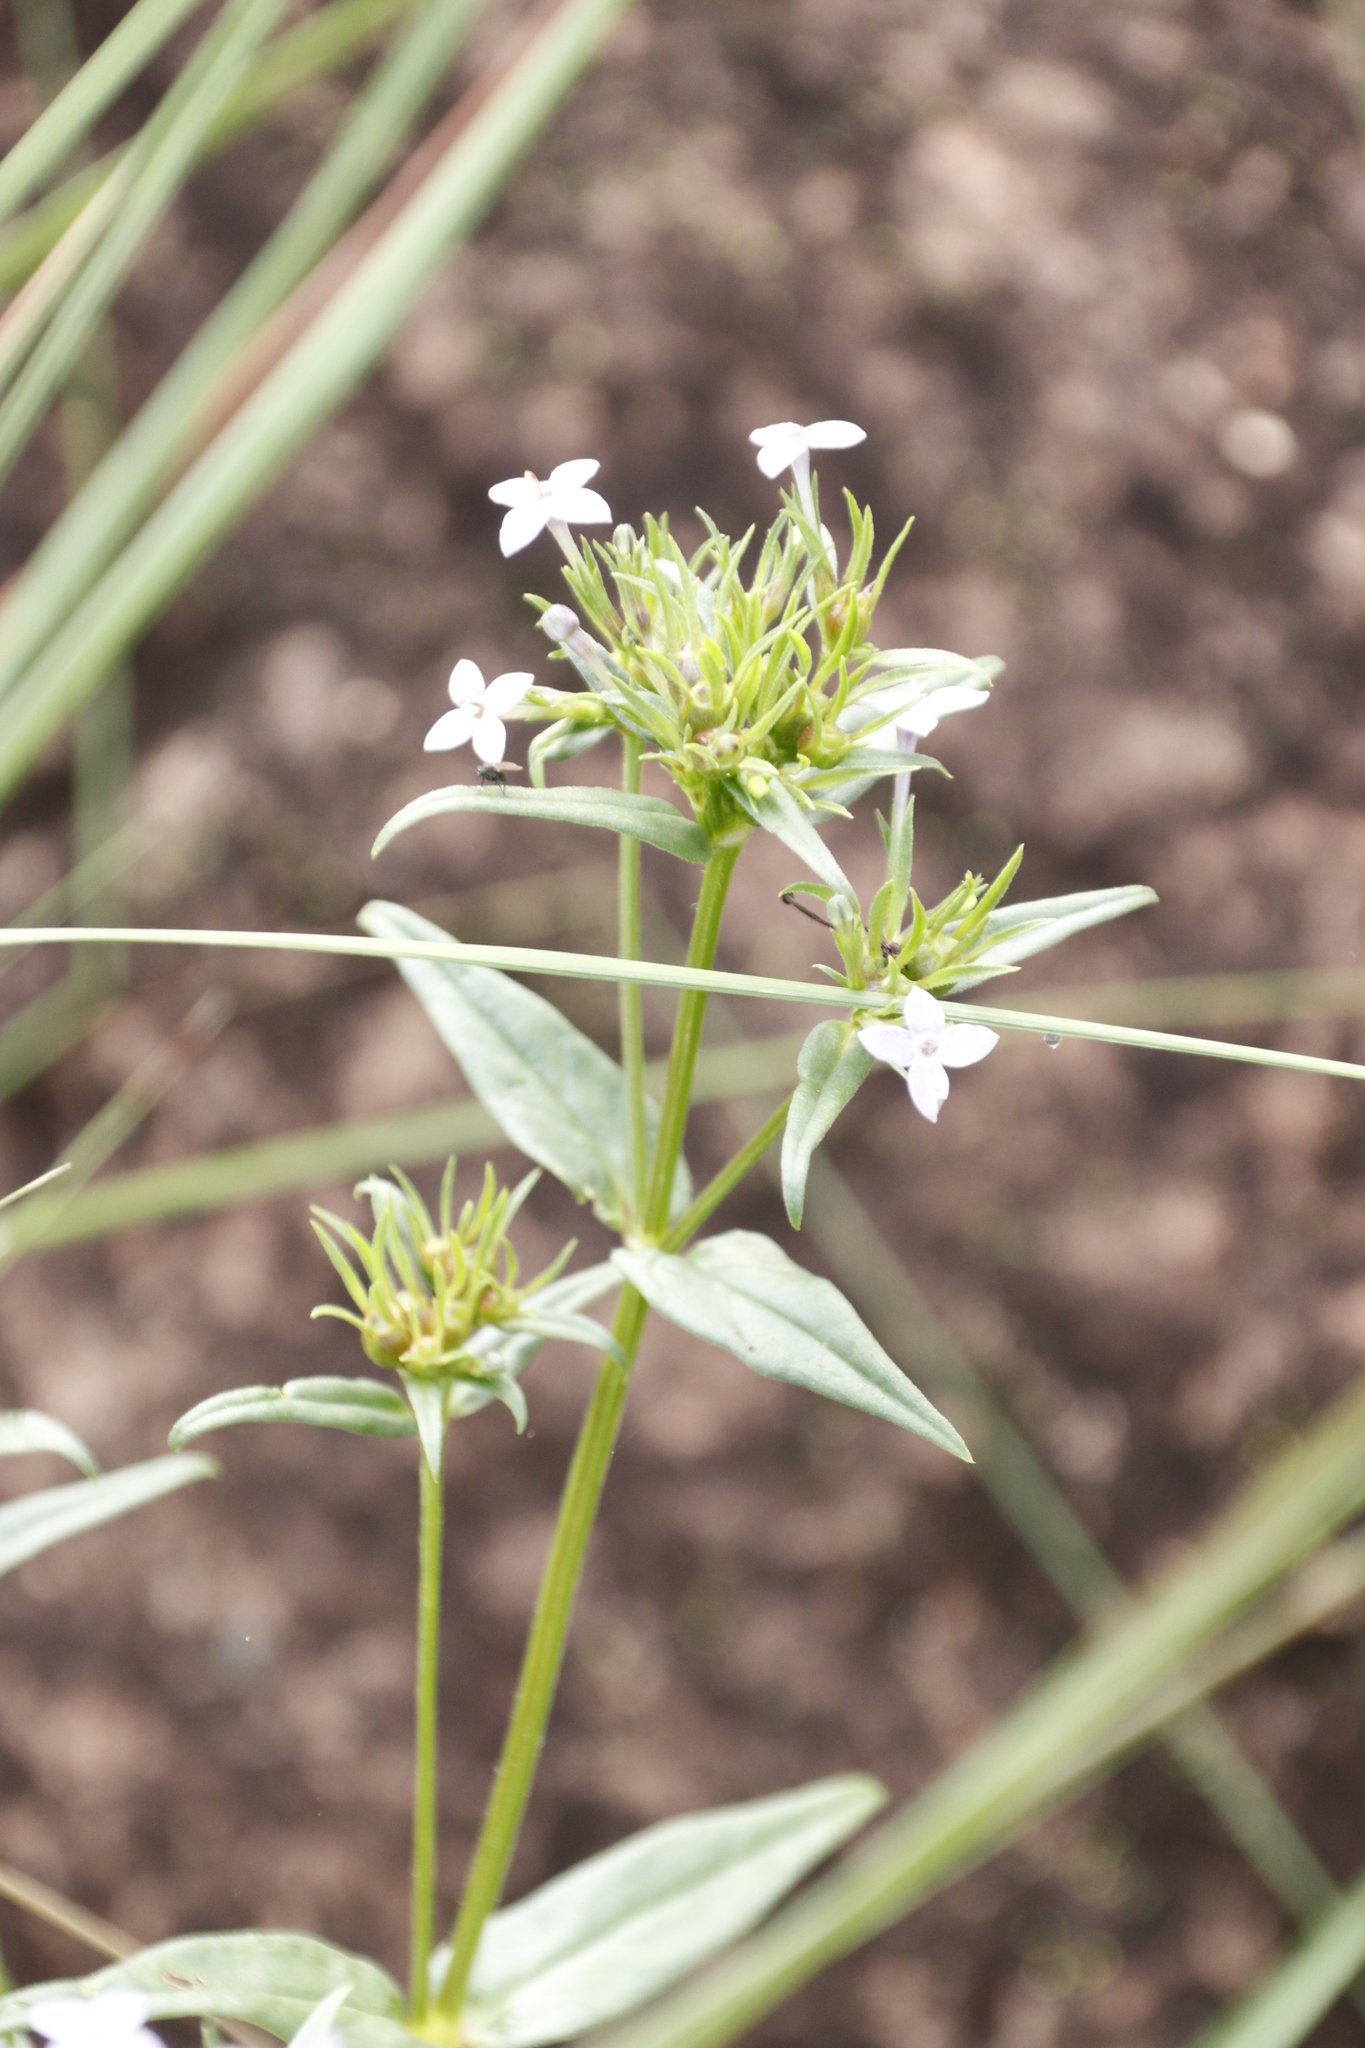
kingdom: Plantae
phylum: Tracheophyta
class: Magnoliopsida
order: Gentianales
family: Rubiaceae
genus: Conostomium
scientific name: Conostomium natalense
